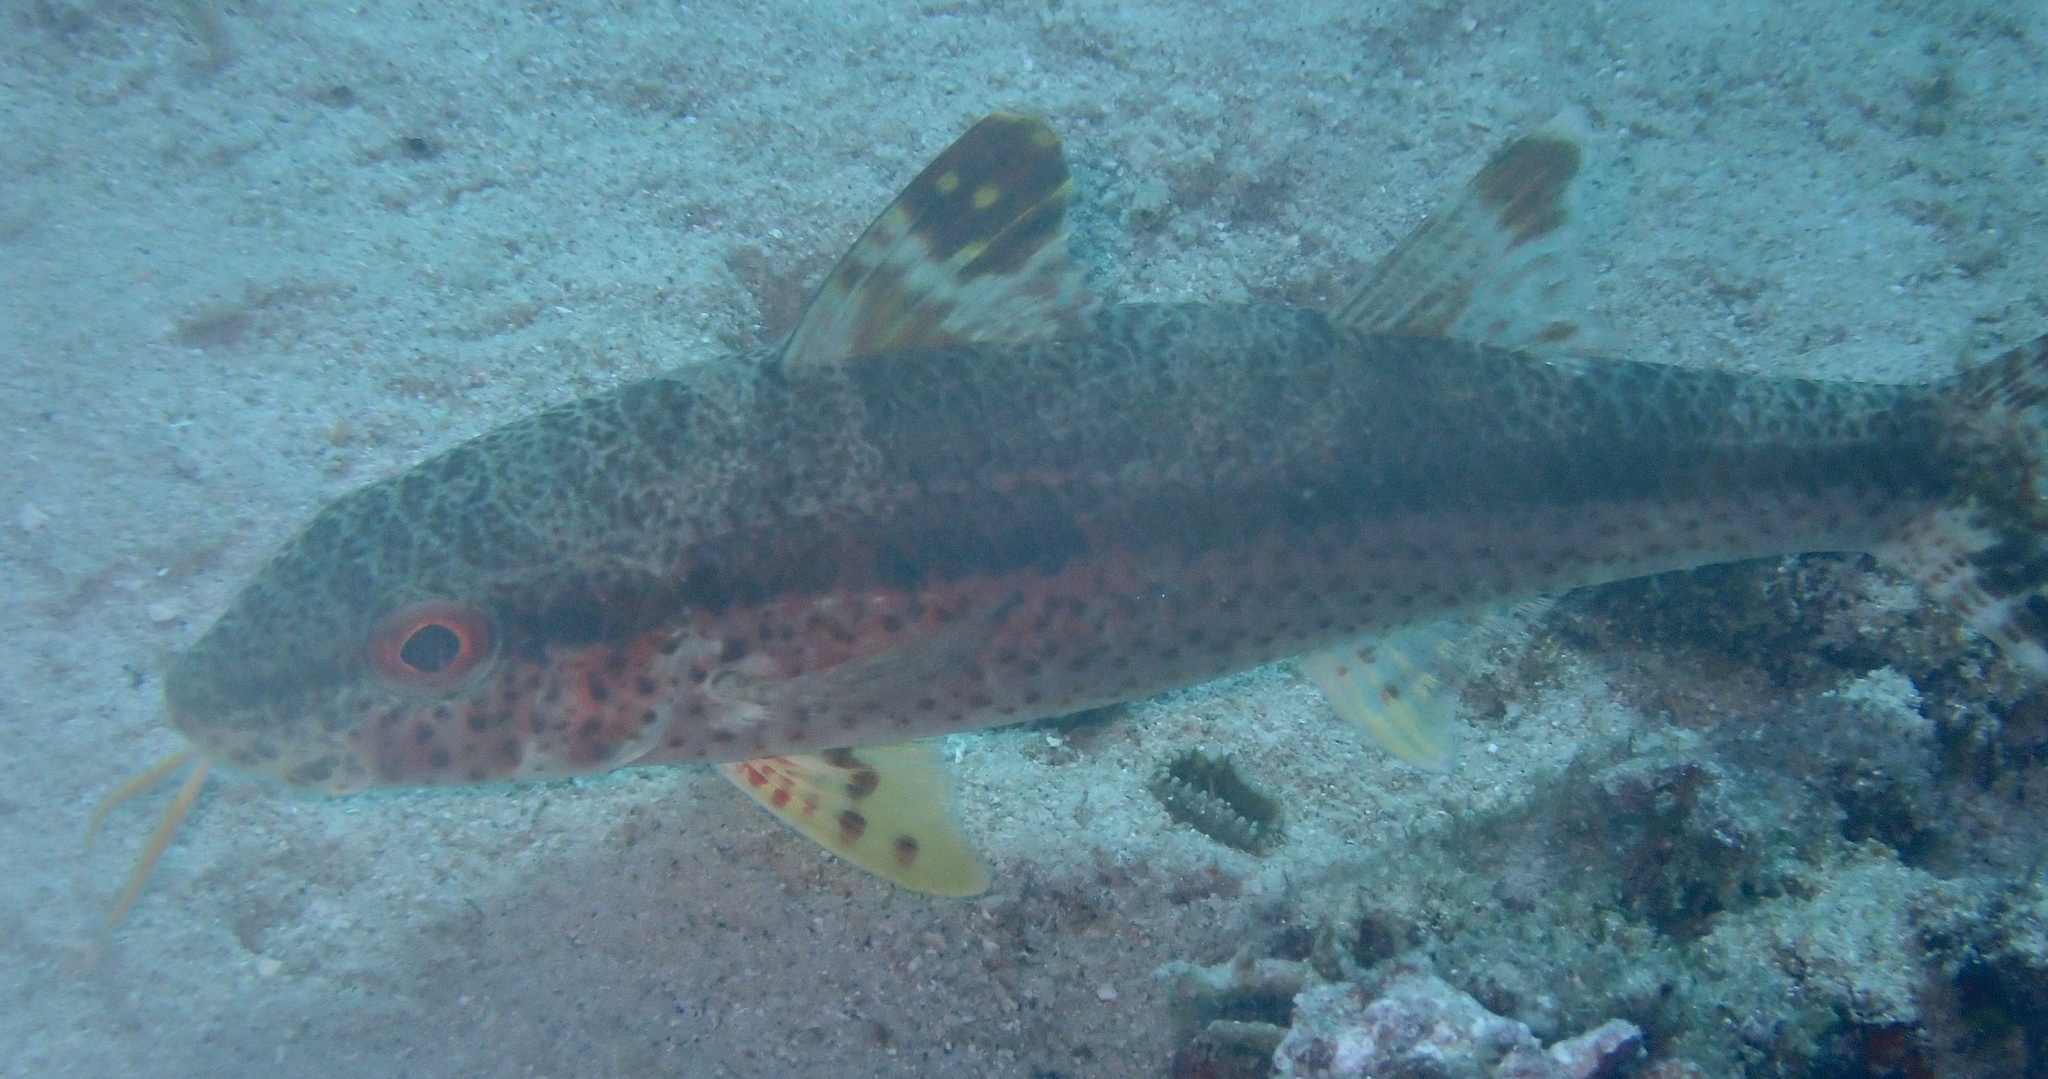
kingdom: Animalia
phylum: Chordata
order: Perciformes
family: Mullidae
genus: Upeneus
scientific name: Upeneus tragula
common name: Freckled goatfish
